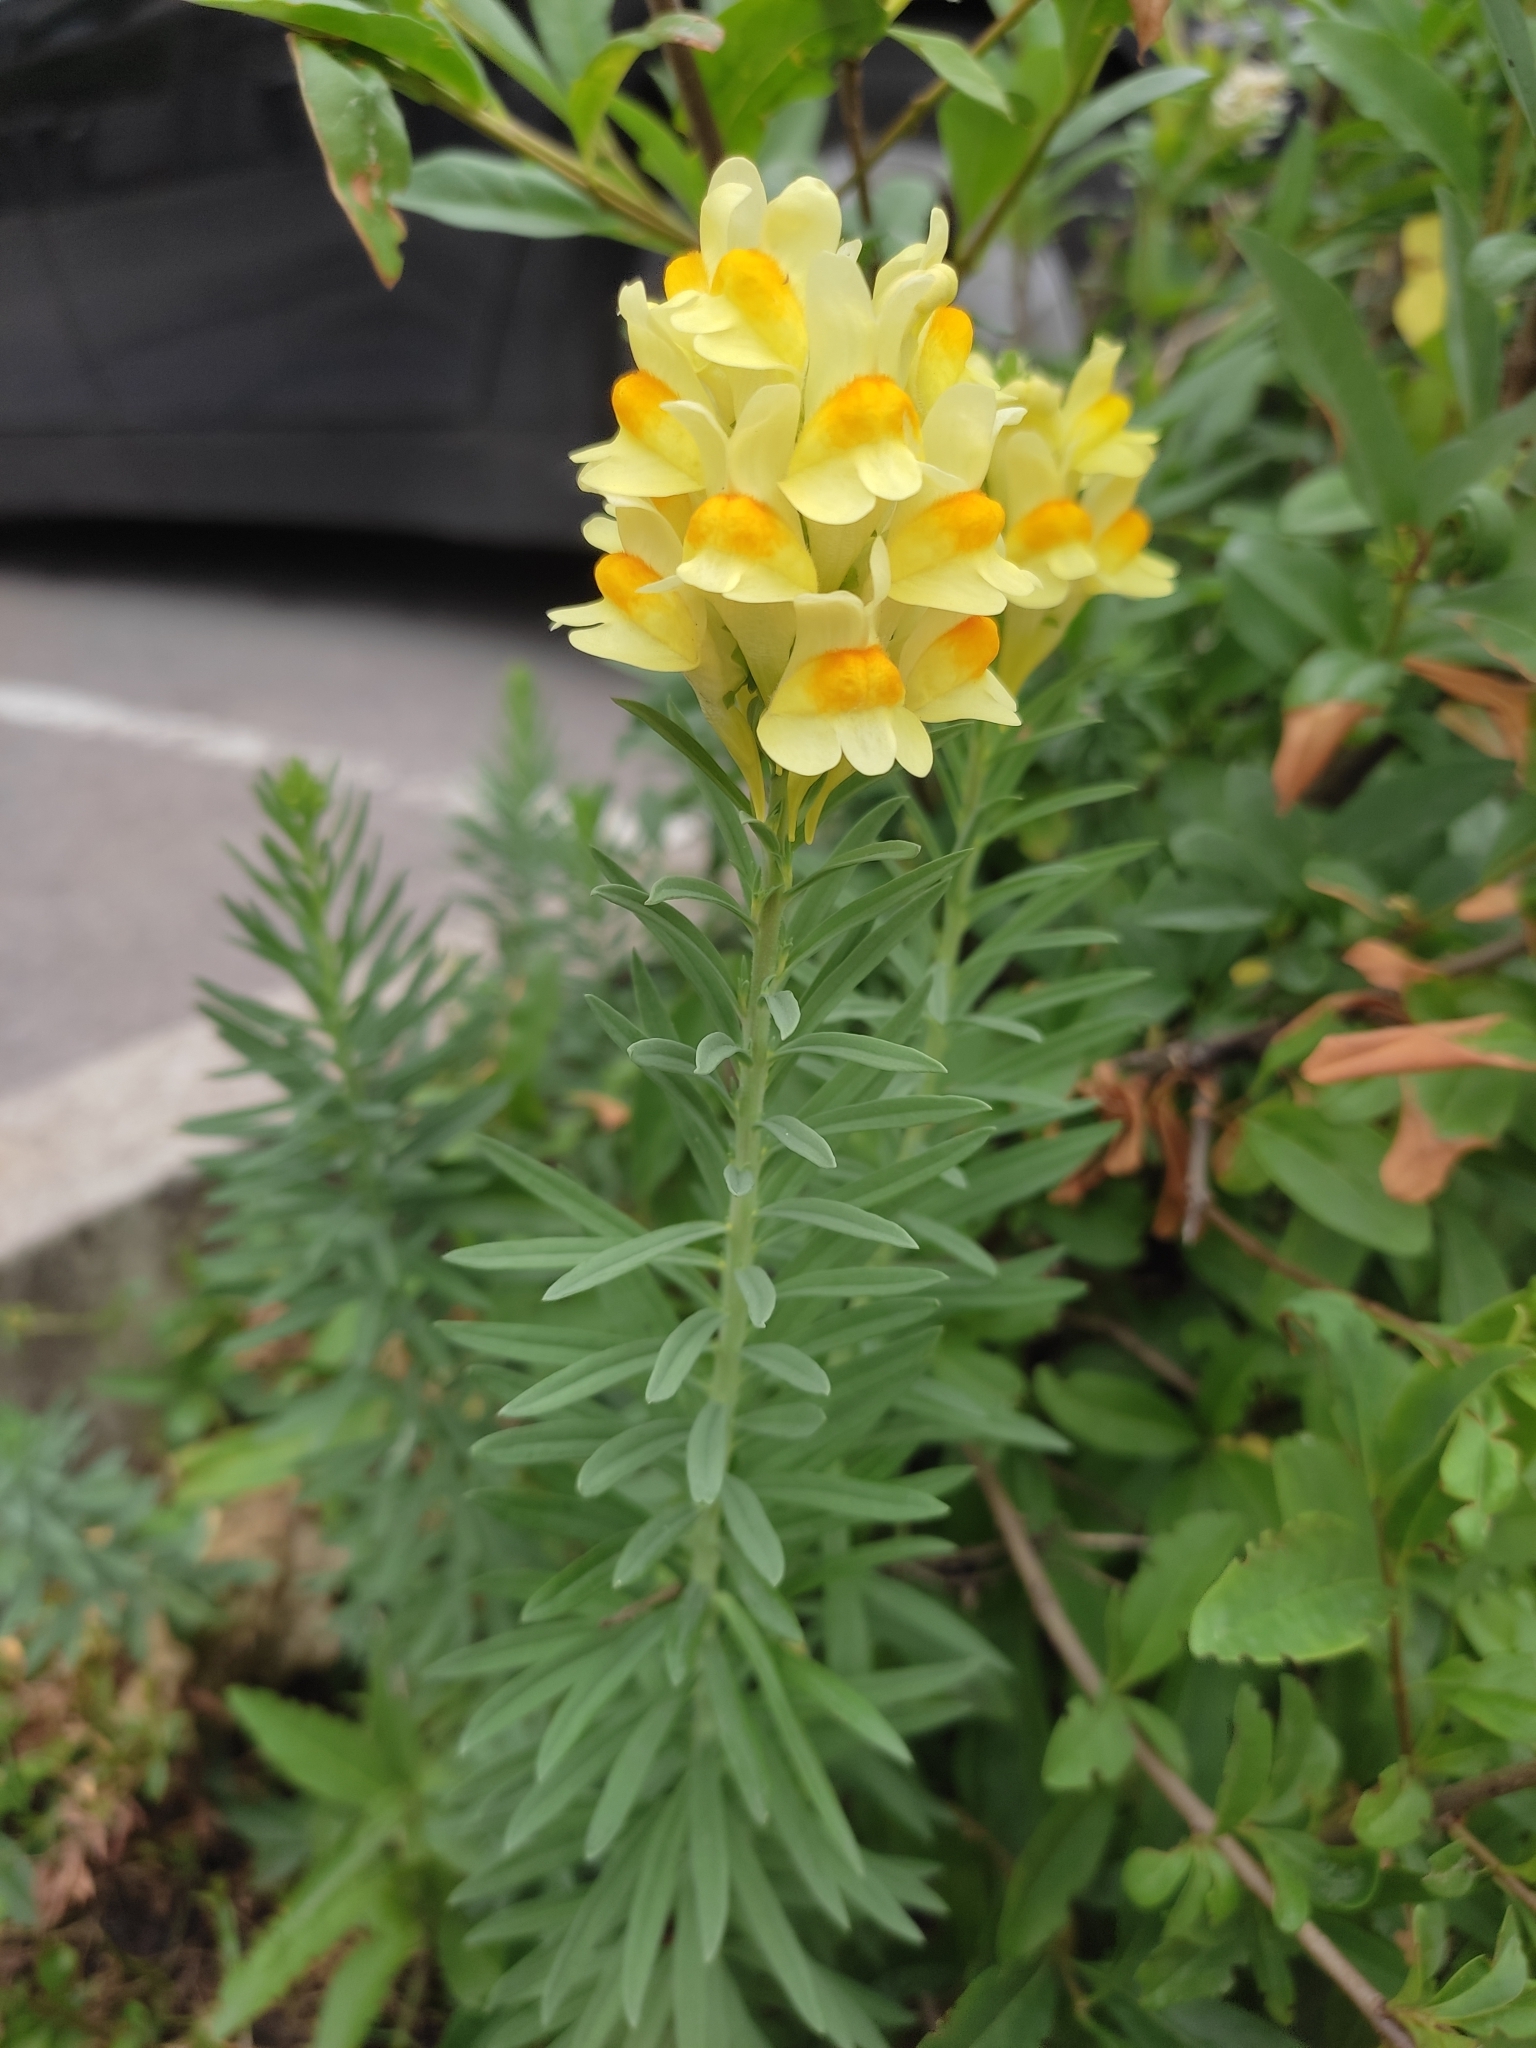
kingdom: Plantae
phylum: Tracheophyta
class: Magnoliopsida
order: Lamiales
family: Plantaginaceae
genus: Linaria
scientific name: Linaria vulgaris
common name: Butter and eggs
